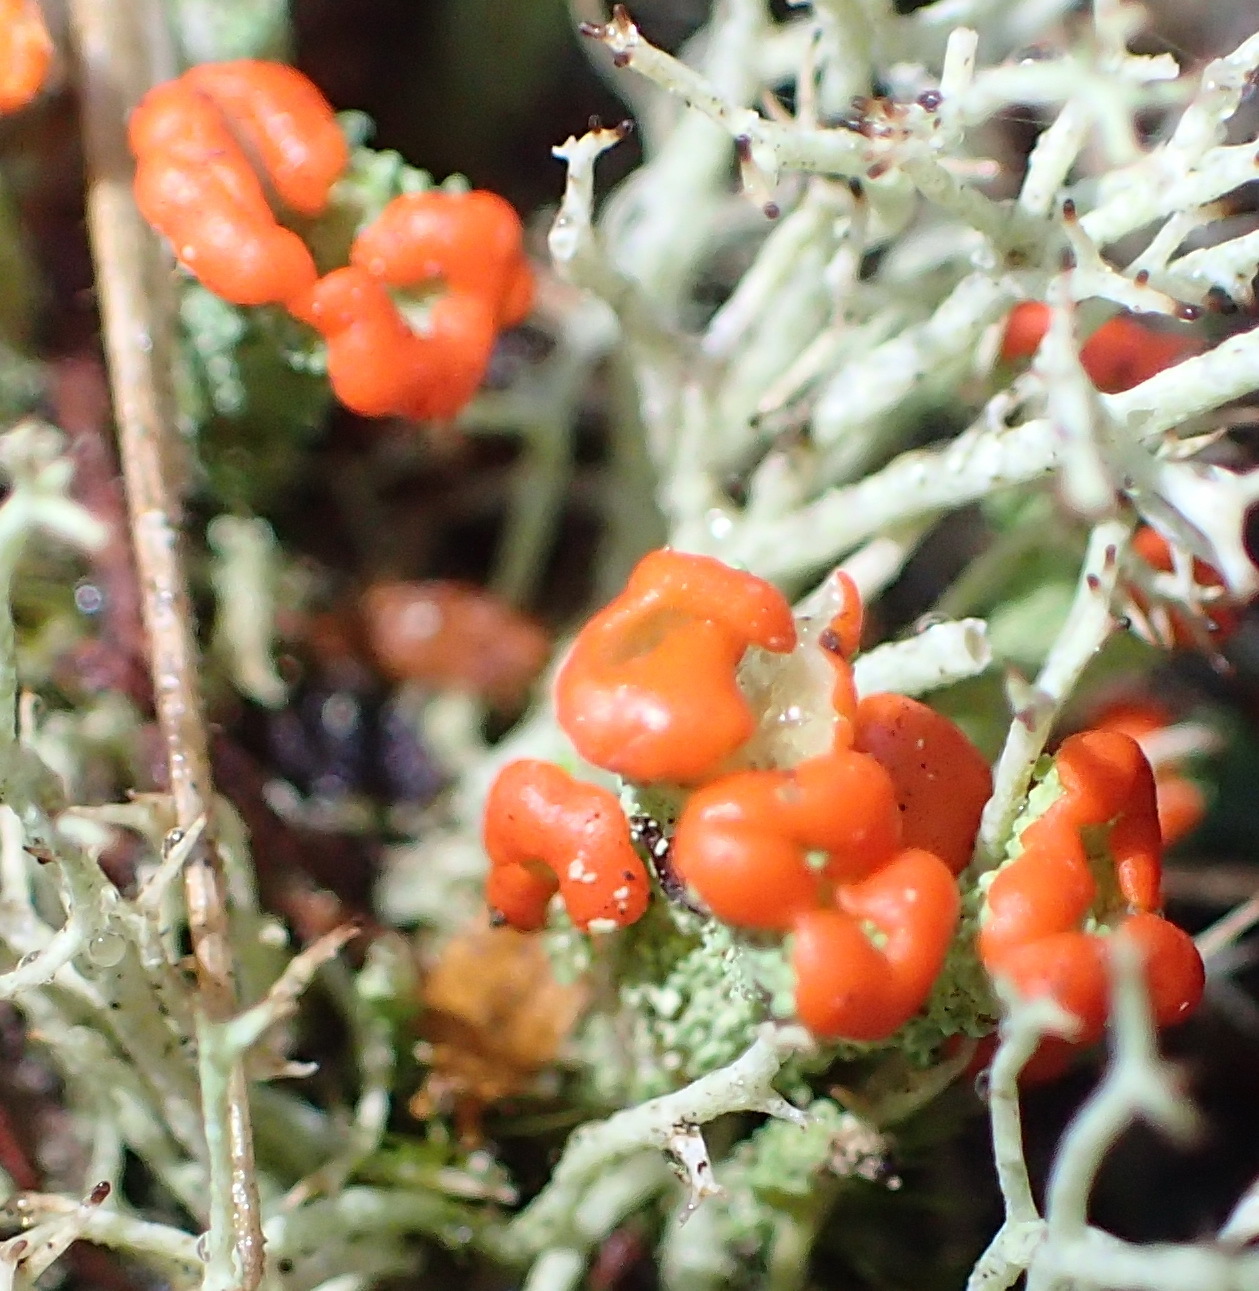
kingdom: Fungi
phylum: Ascomycota
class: Lecanoromycetes
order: Lecanorales
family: Cladoniaceae
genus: Cladonia
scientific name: Cladonia floerkeana
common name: Gritty british soldiers lichen
